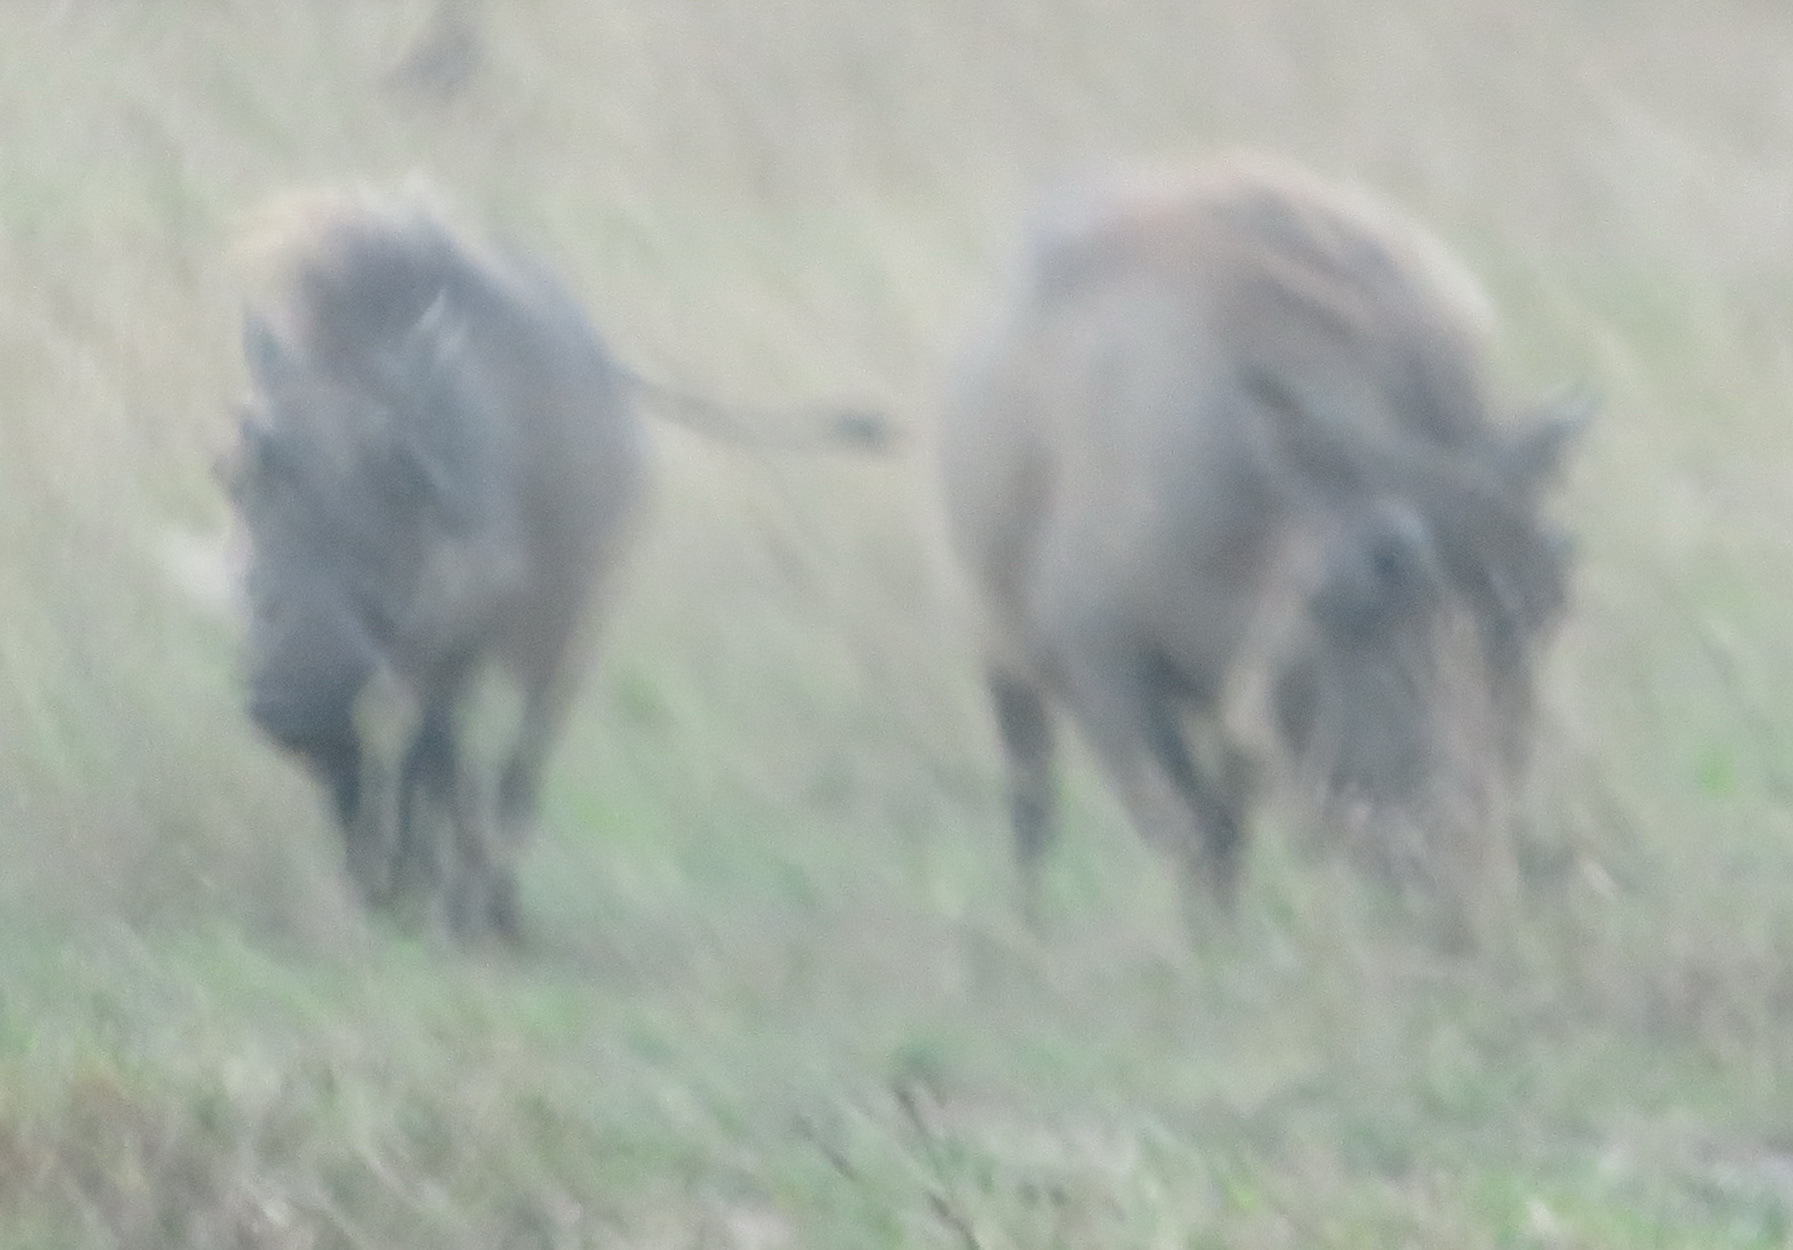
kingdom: Animalia
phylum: Chordata
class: Mammalia
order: Artiodactyla
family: Suidae
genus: Phacochoerus
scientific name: Phacochoerus africanus
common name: Common warthog
